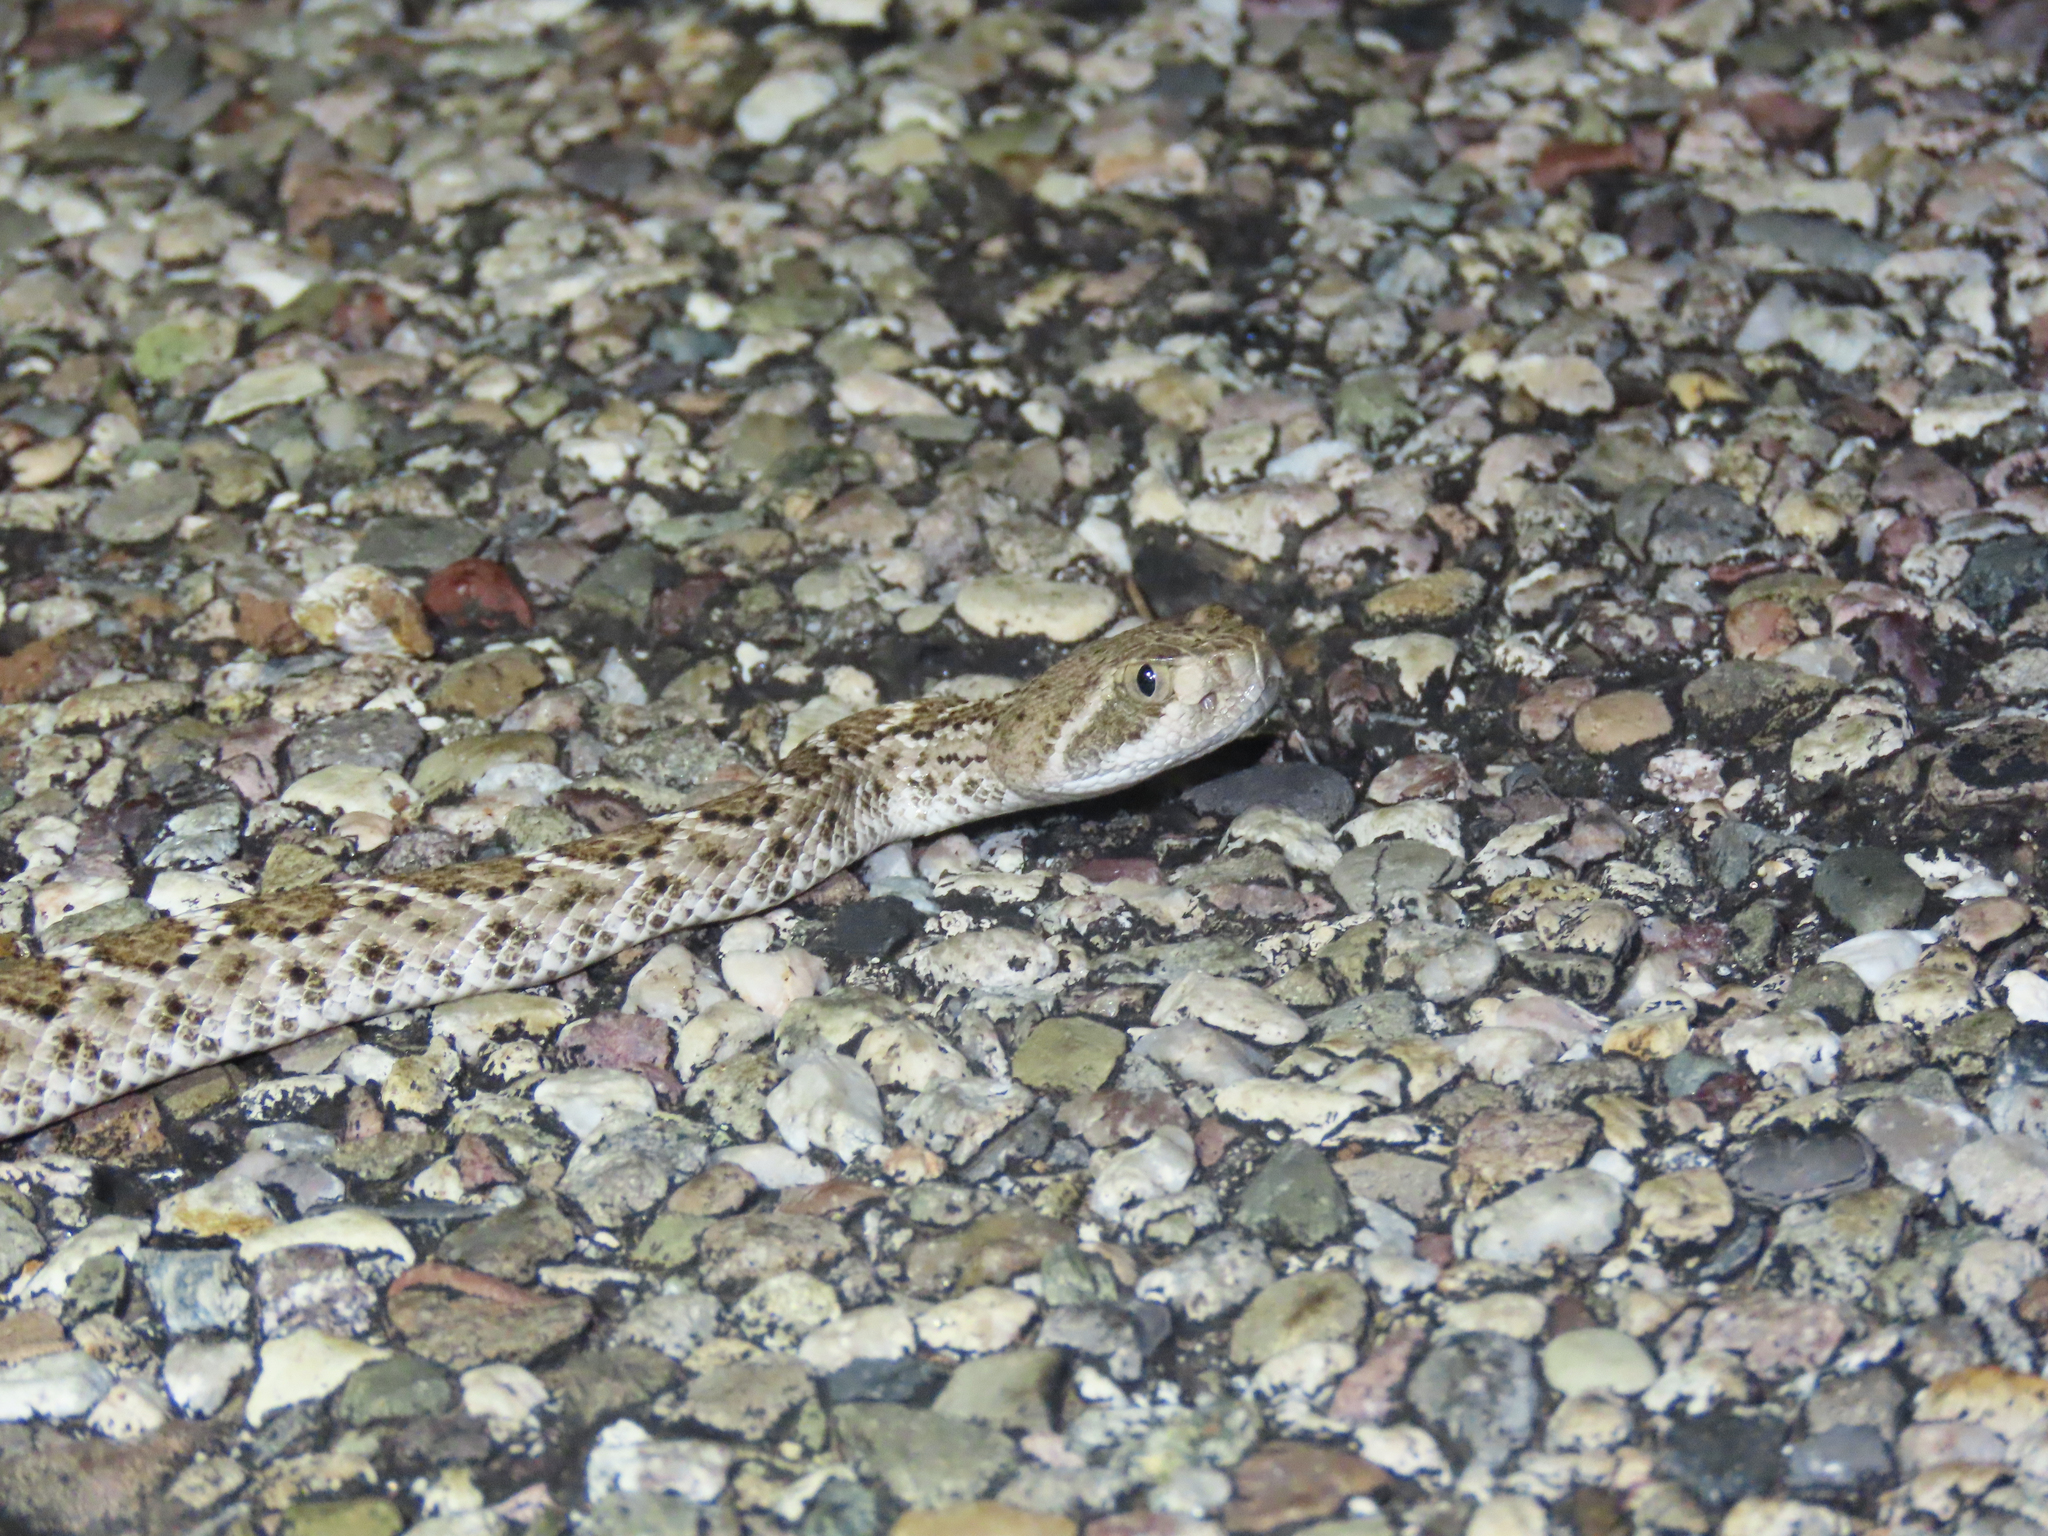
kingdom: Animalia
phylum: Chordata
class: Squamata
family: Viperidae
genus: Crotalus
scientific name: Crotalus atrox
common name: Western diamond-backed rattlesnake
